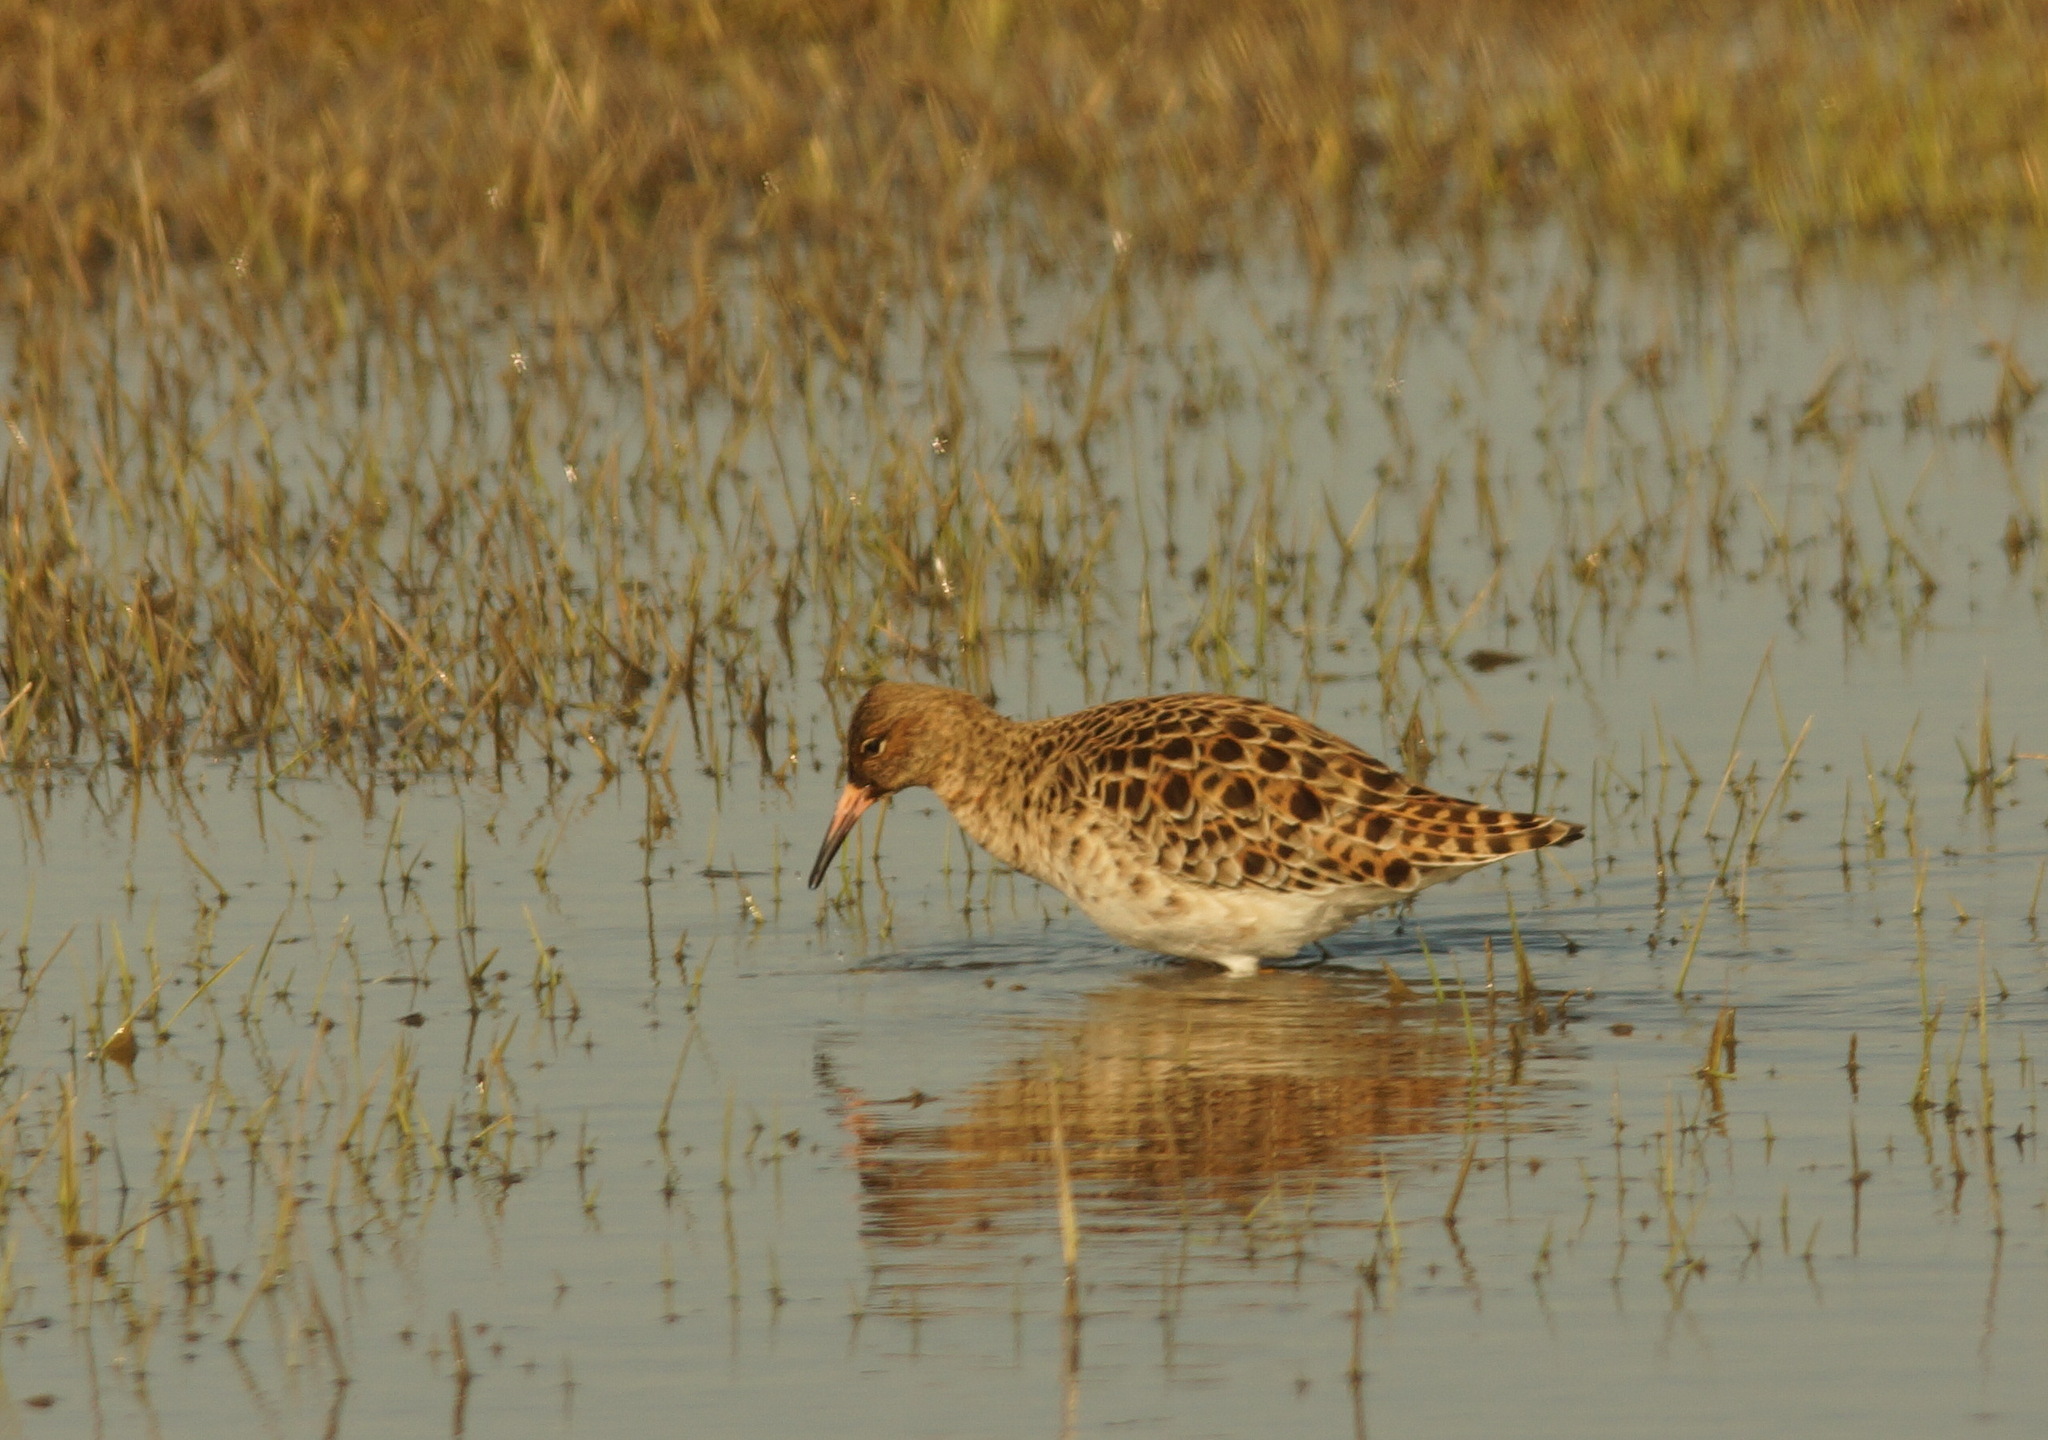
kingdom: Animalia
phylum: Chordata
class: Aves
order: Charadriiformes
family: Scolopacidae
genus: Calidris
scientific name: Calidris pugnax
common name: Ruff
